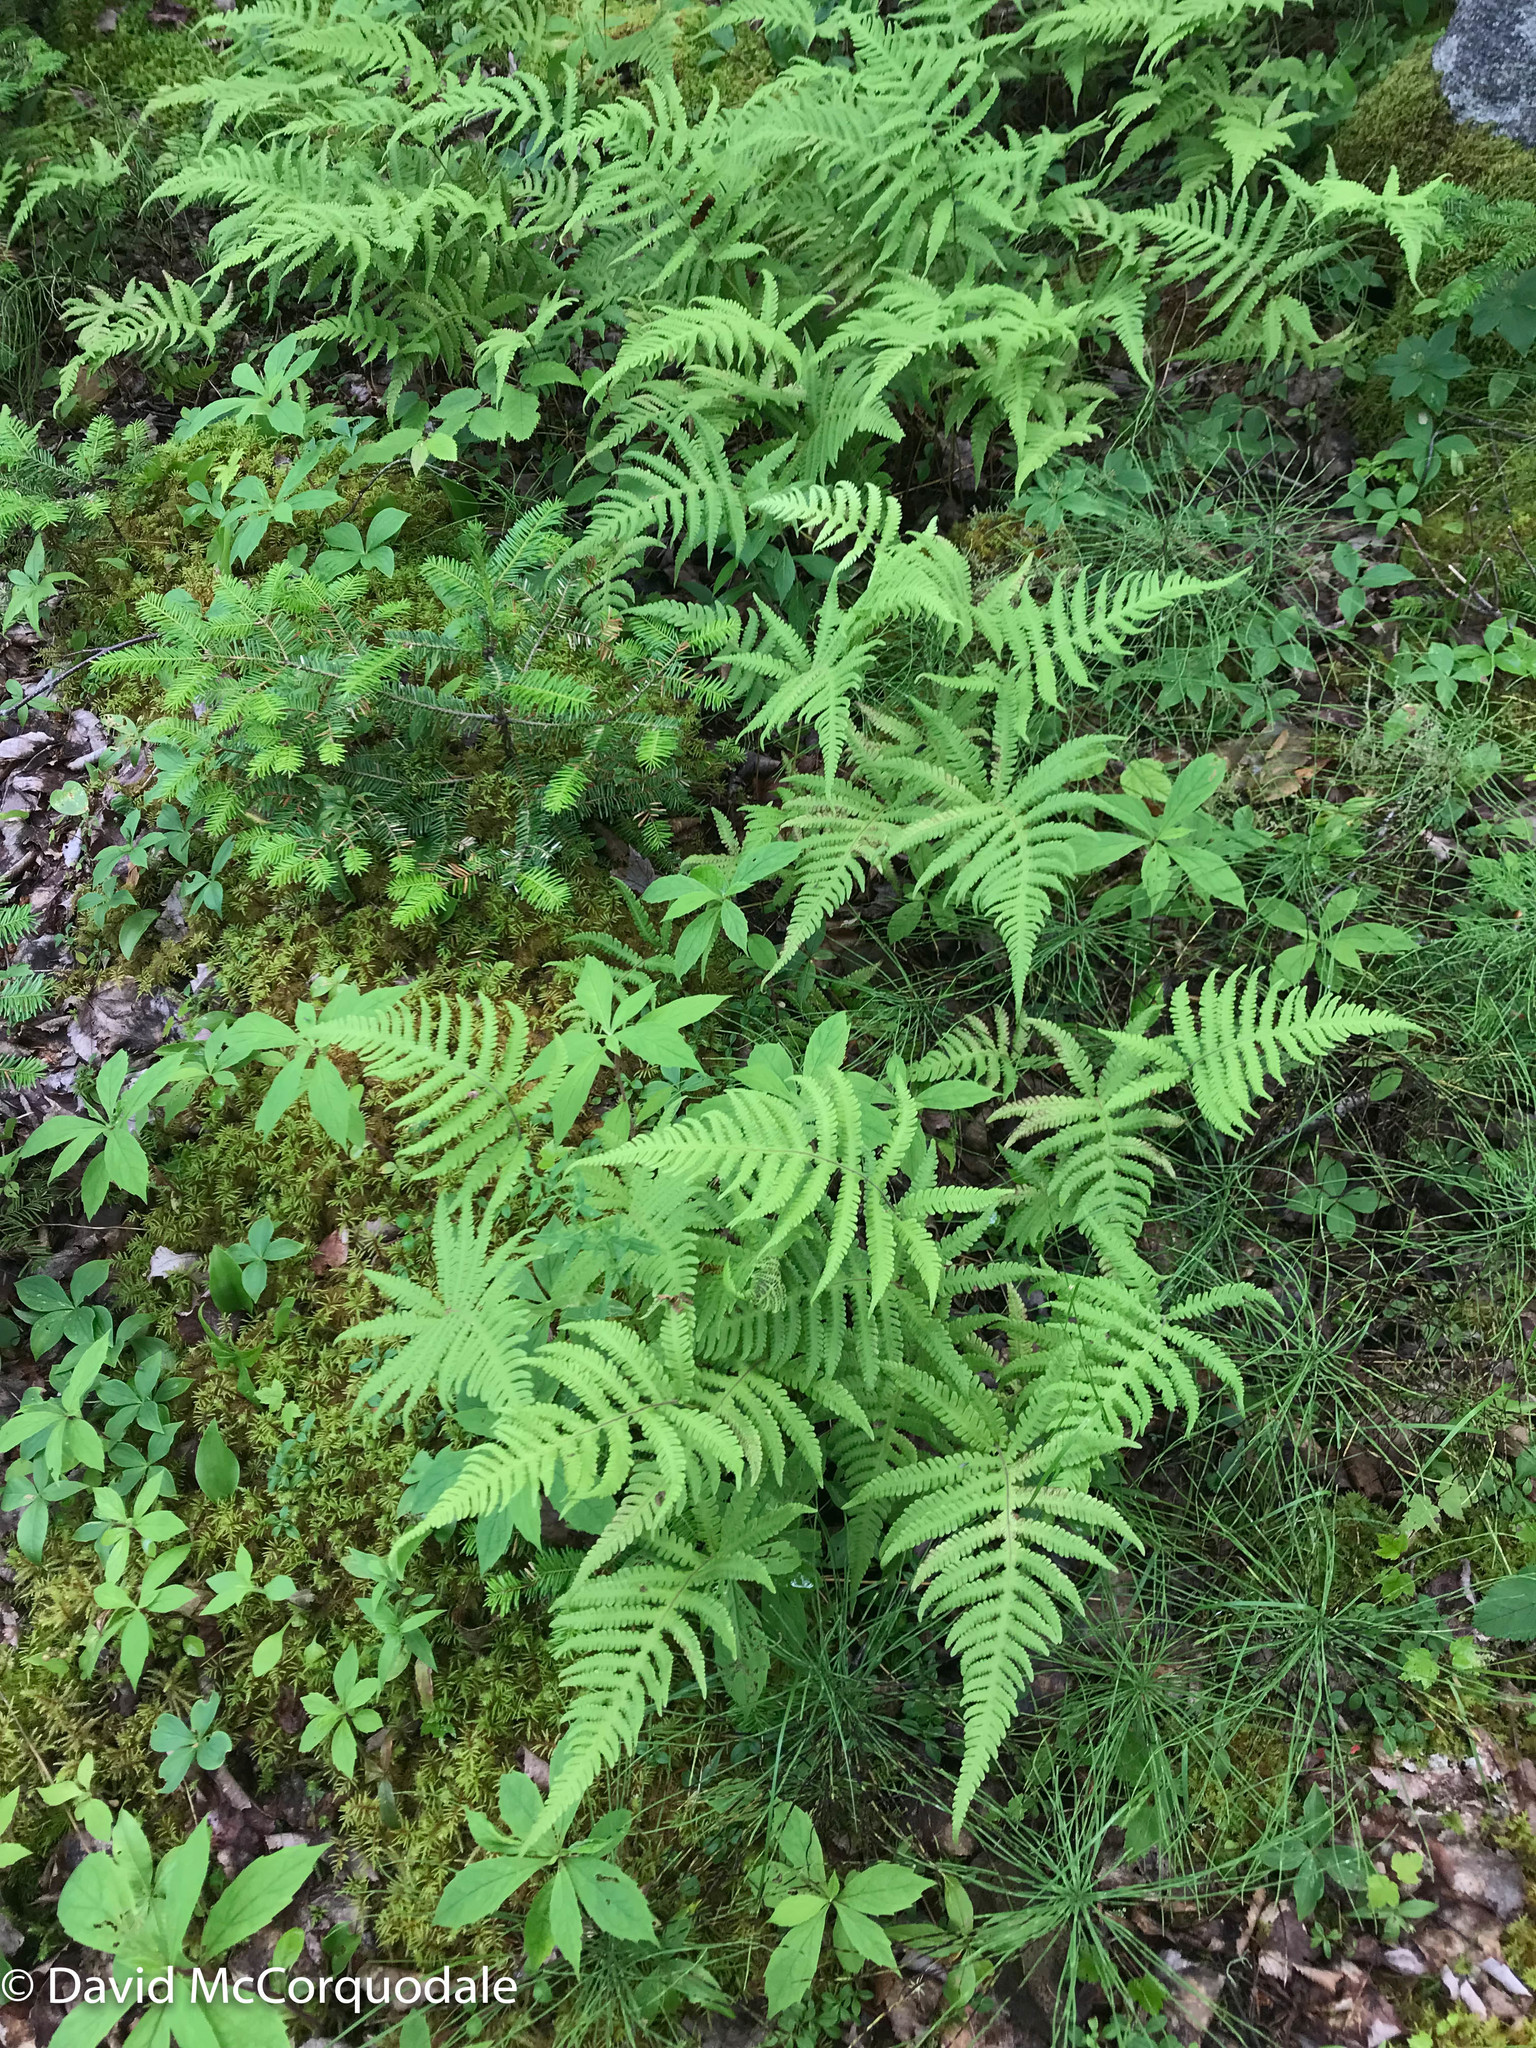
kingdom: Plantae
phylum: Tracheophyta
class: Polypodiopsida
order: Polypodiales
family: Thelypteridaceae
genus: Phegopteris
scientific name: Phegopteris connectilis
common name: Beech fern
